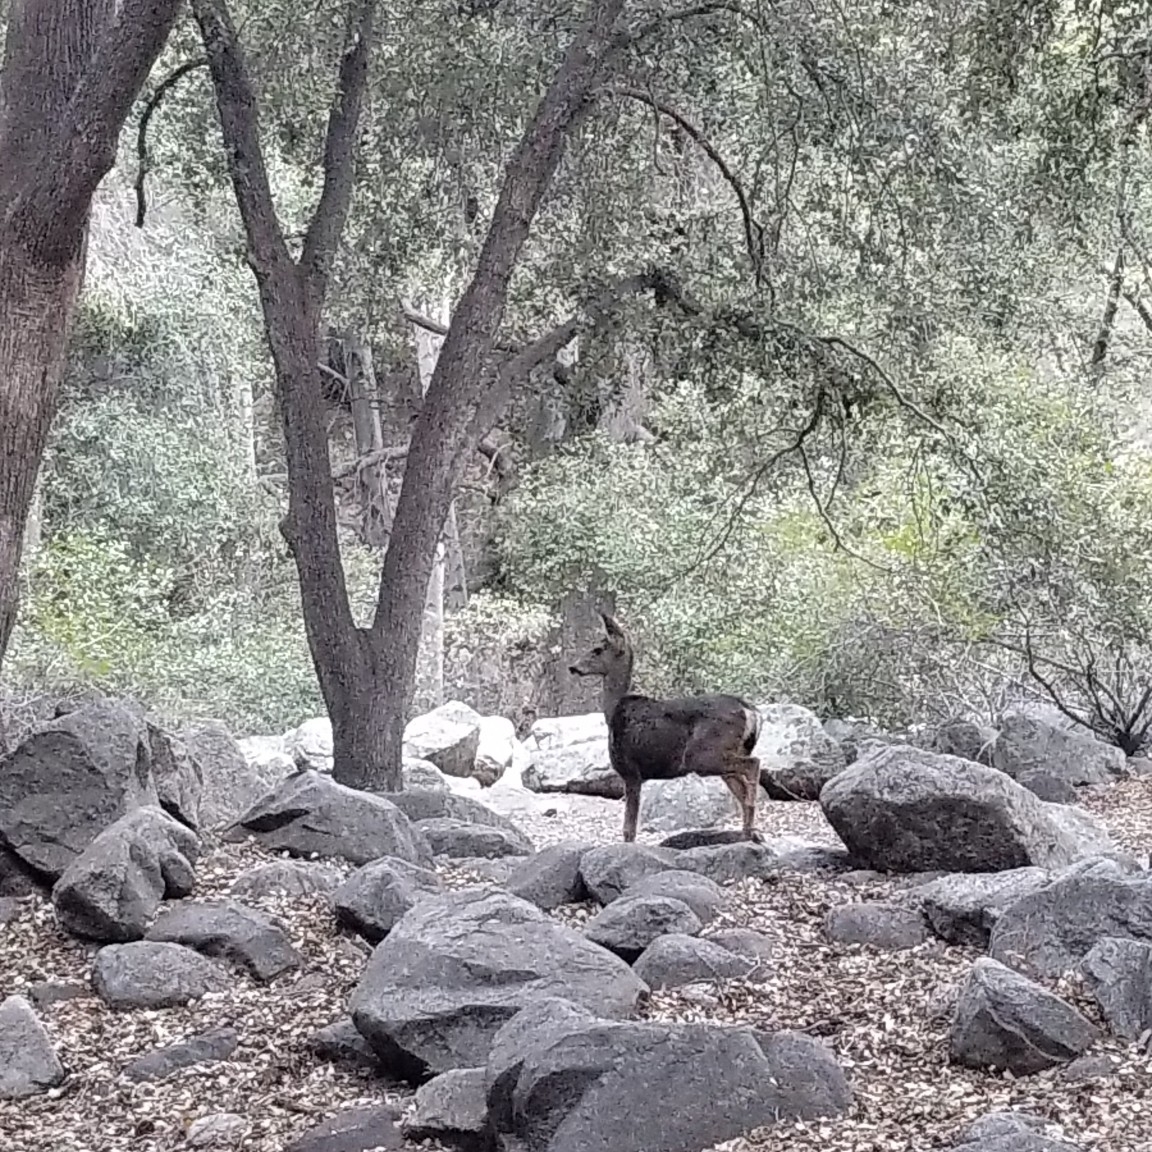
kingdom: Animalia
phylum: Chordata
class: Mammalia
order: Artiodactyla
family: Cervidae
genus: Odocoileus
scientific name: Odocoileus hemionus
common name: Mule deer
